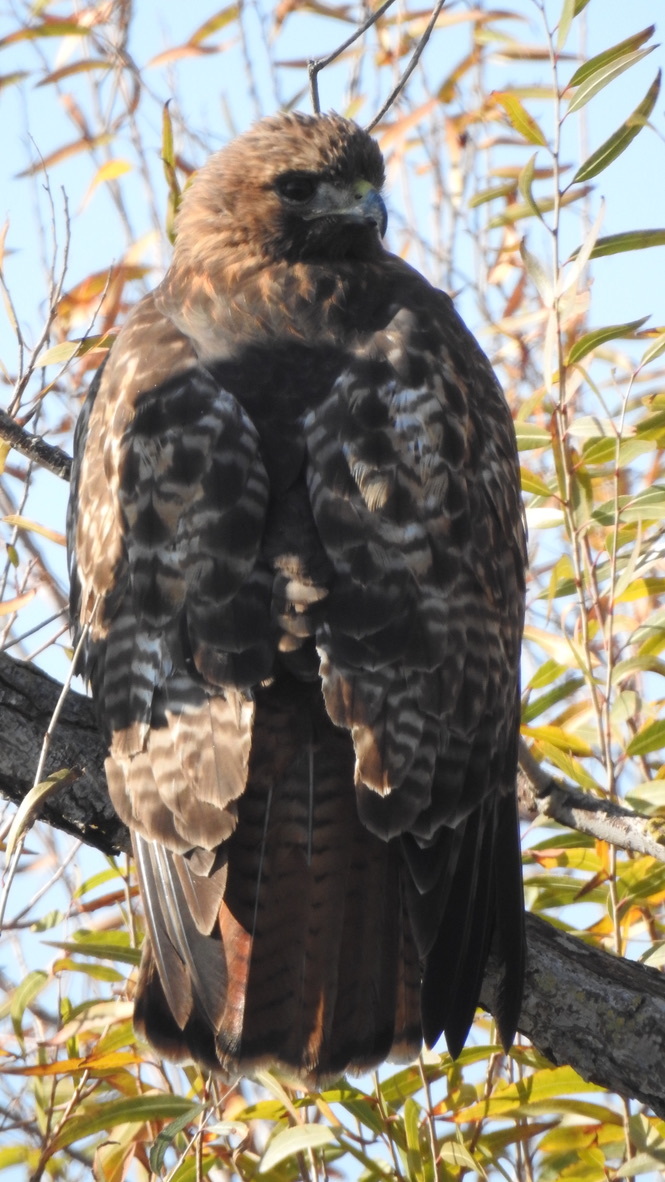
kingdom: Animalia
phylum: Chordata
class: Aves
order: Accipitriformes
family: Accipitridae
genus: Buteo
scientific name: Buteo jamaicensis
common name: Red-tailed hawk
